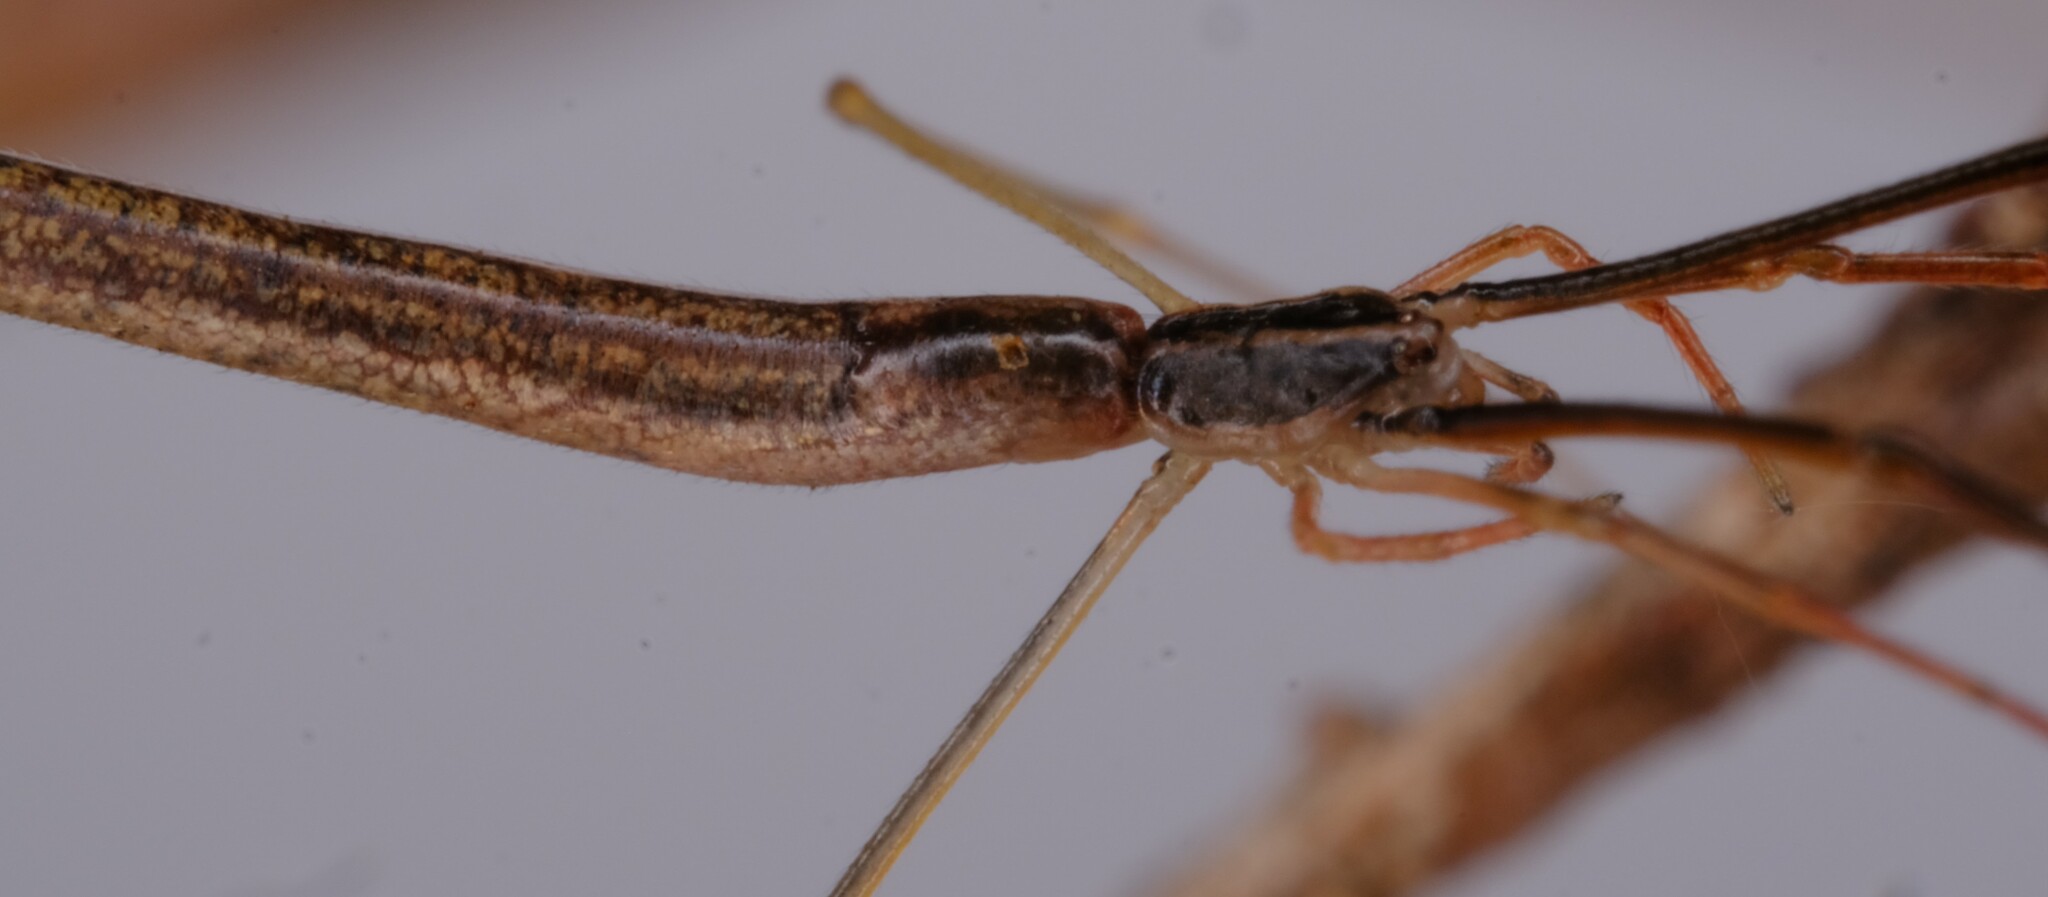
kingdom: Animalia
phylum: Arthropoda
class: Arachnida
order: Araneae
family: Theridiidae
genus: Ariamnes
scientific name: Ariamnes colubrinus
